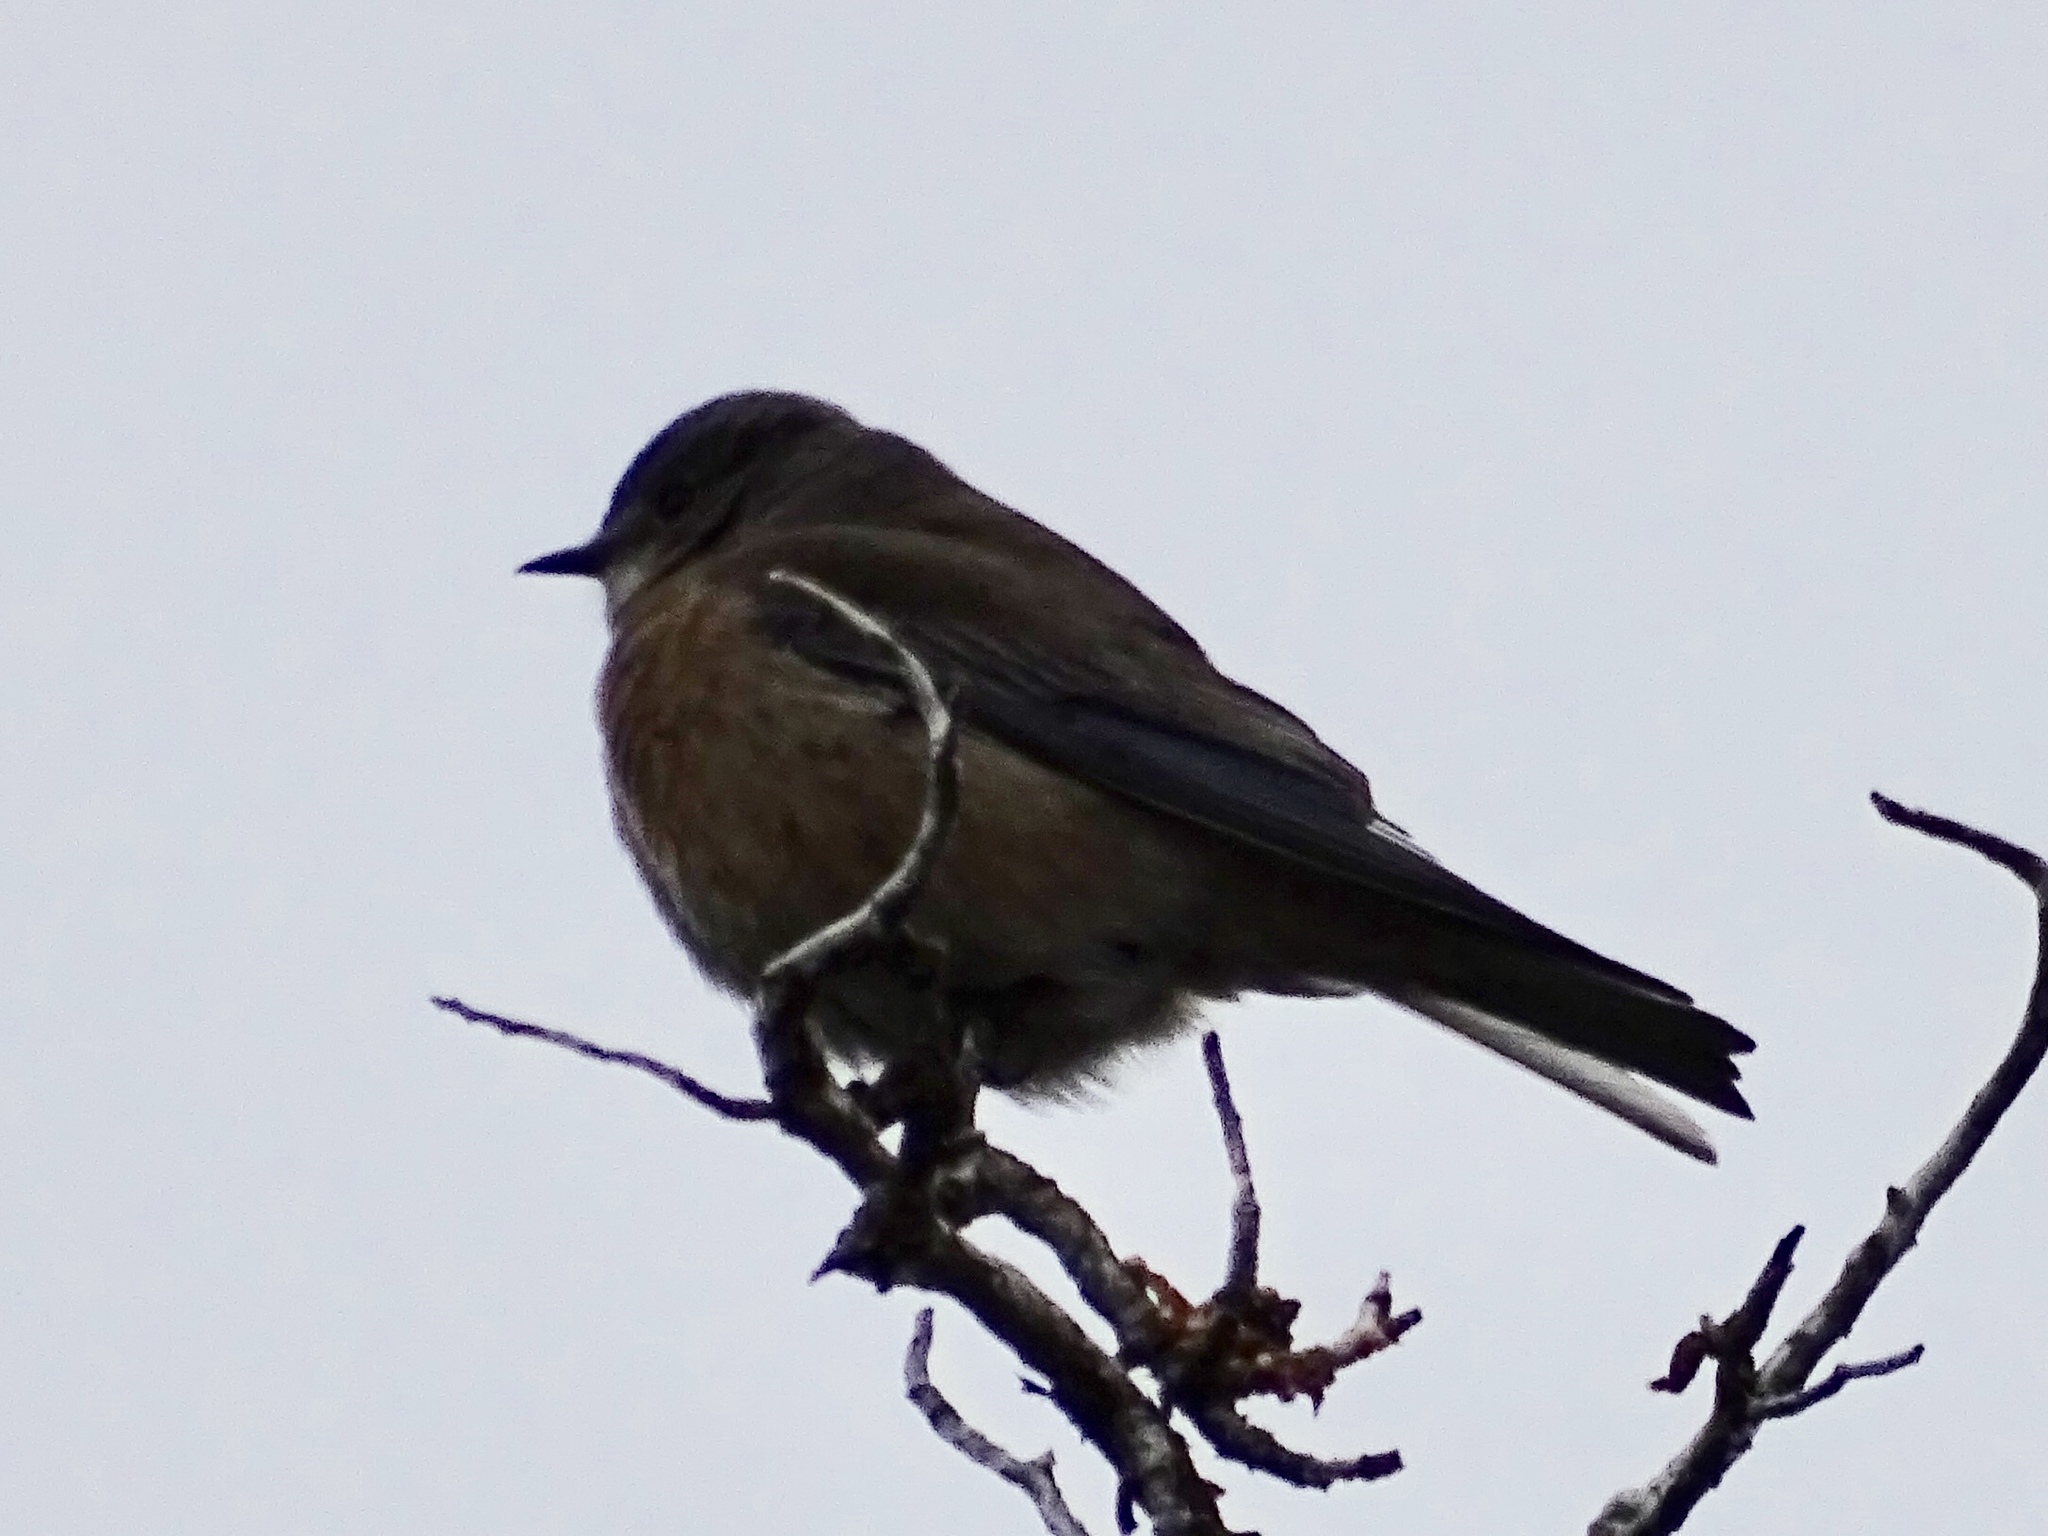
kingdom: Animalia
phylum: Chordata
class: Aves
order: Passeriformes
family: Turdidae
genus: Sialia
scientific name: Sialia mexicana
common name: Western bluebird
